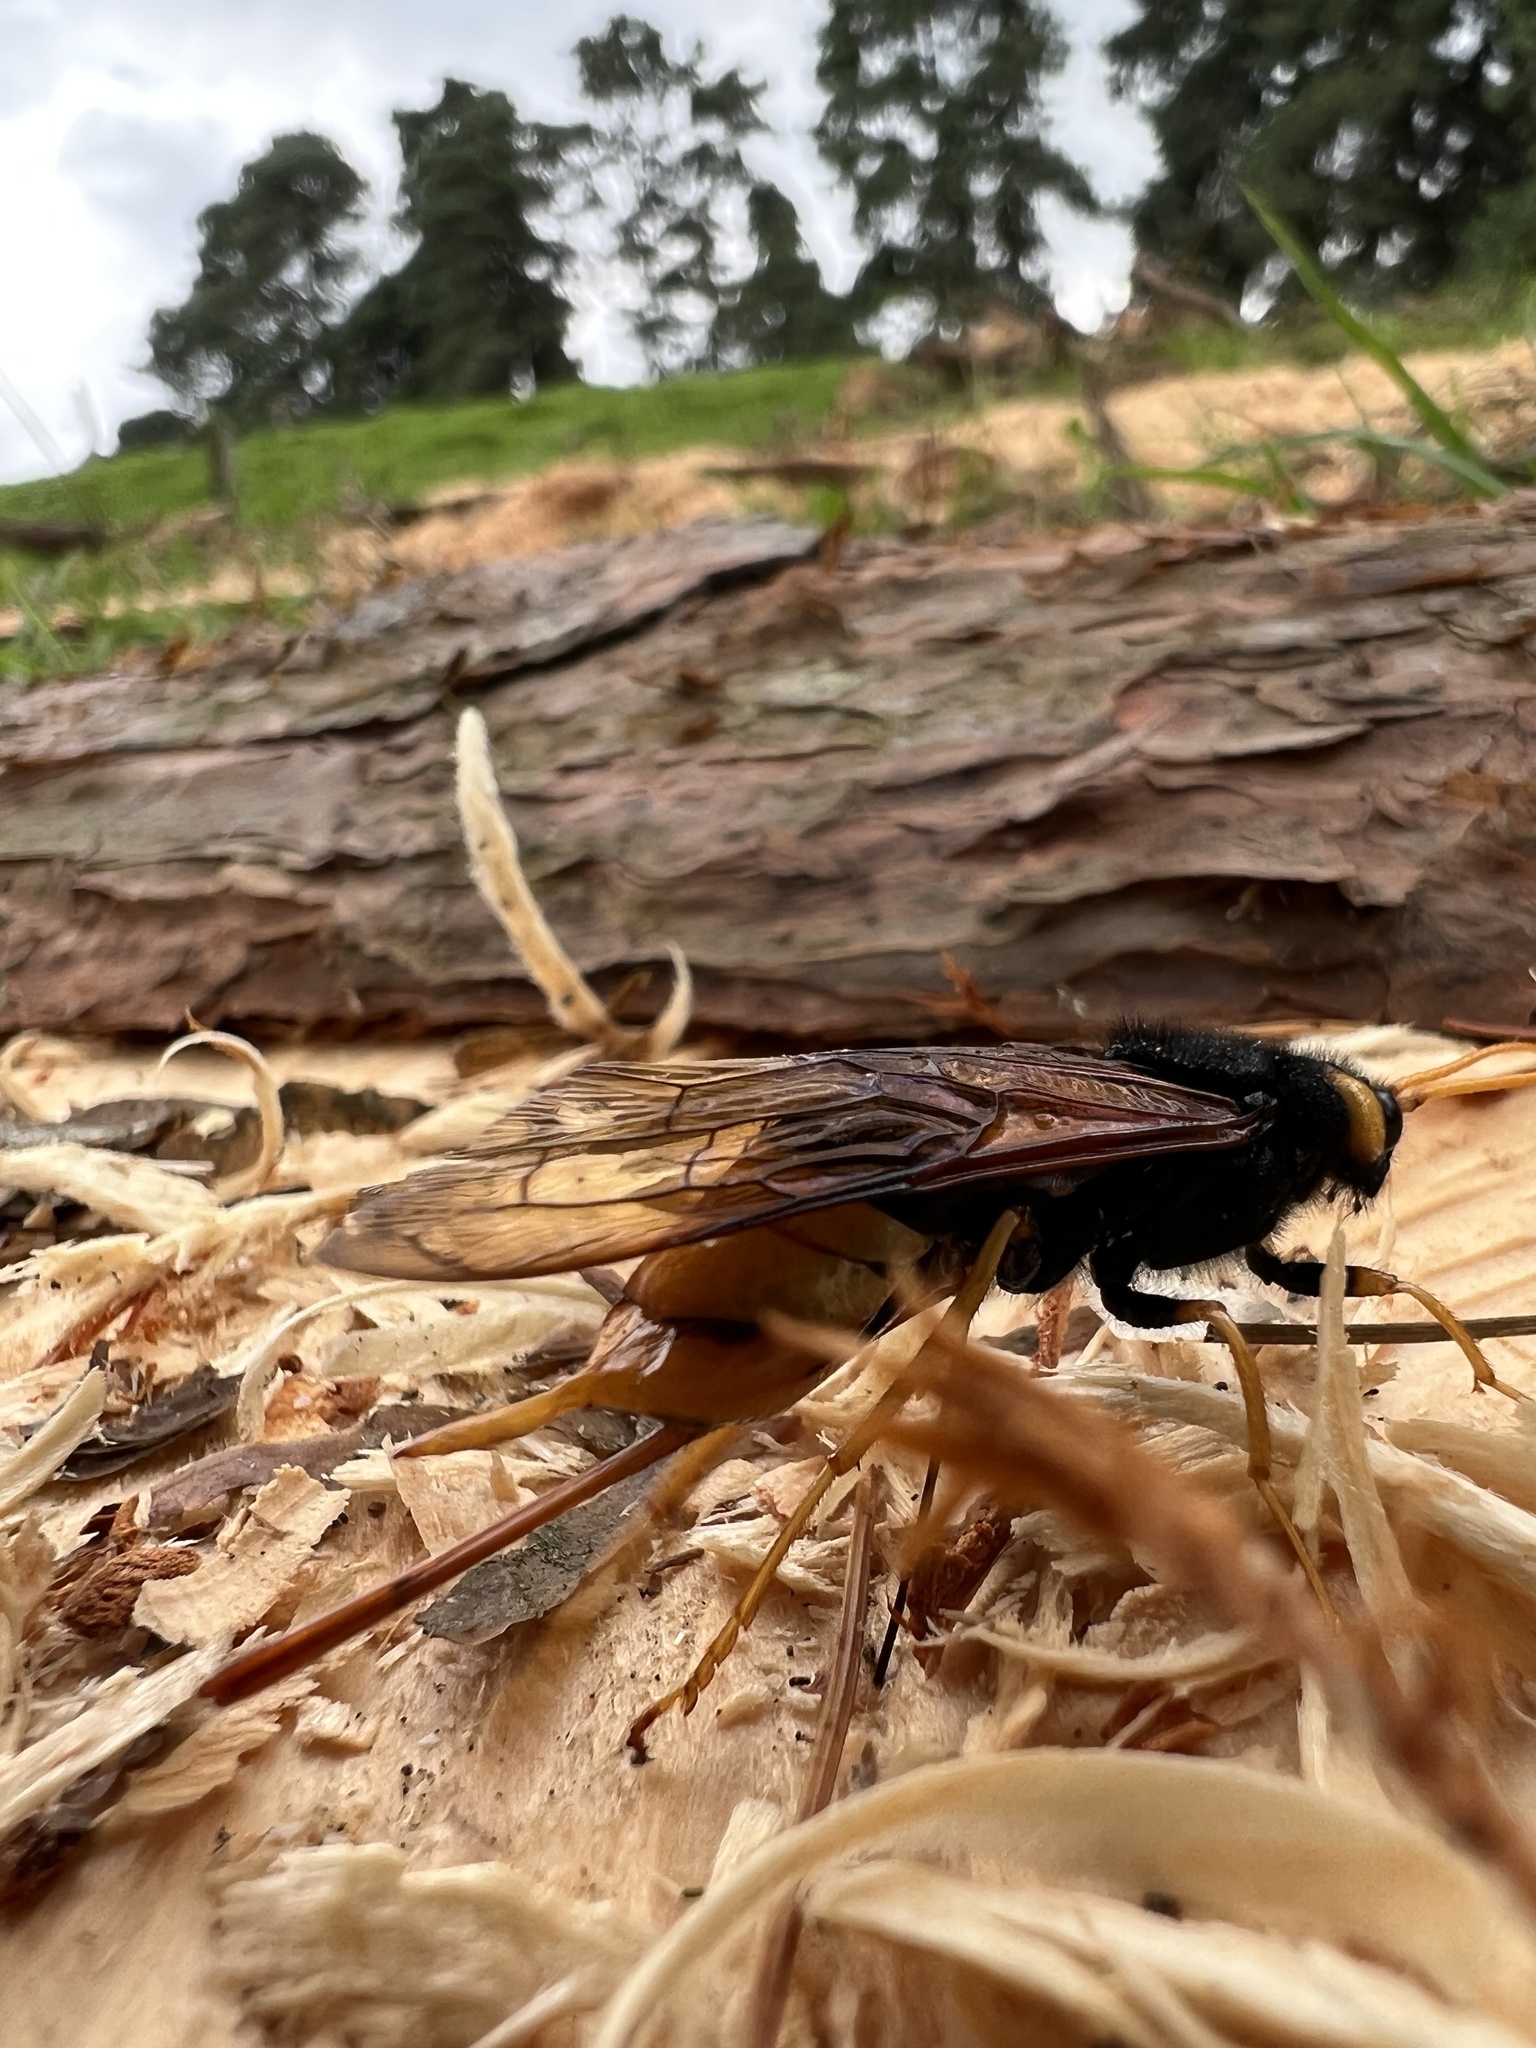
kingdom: Animalia
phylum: Arthropoda
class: Insecta
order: Hymenoptera
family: Siricidae
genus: Urocerus
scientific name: Urocerus gigas
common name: Giant woodwasp
